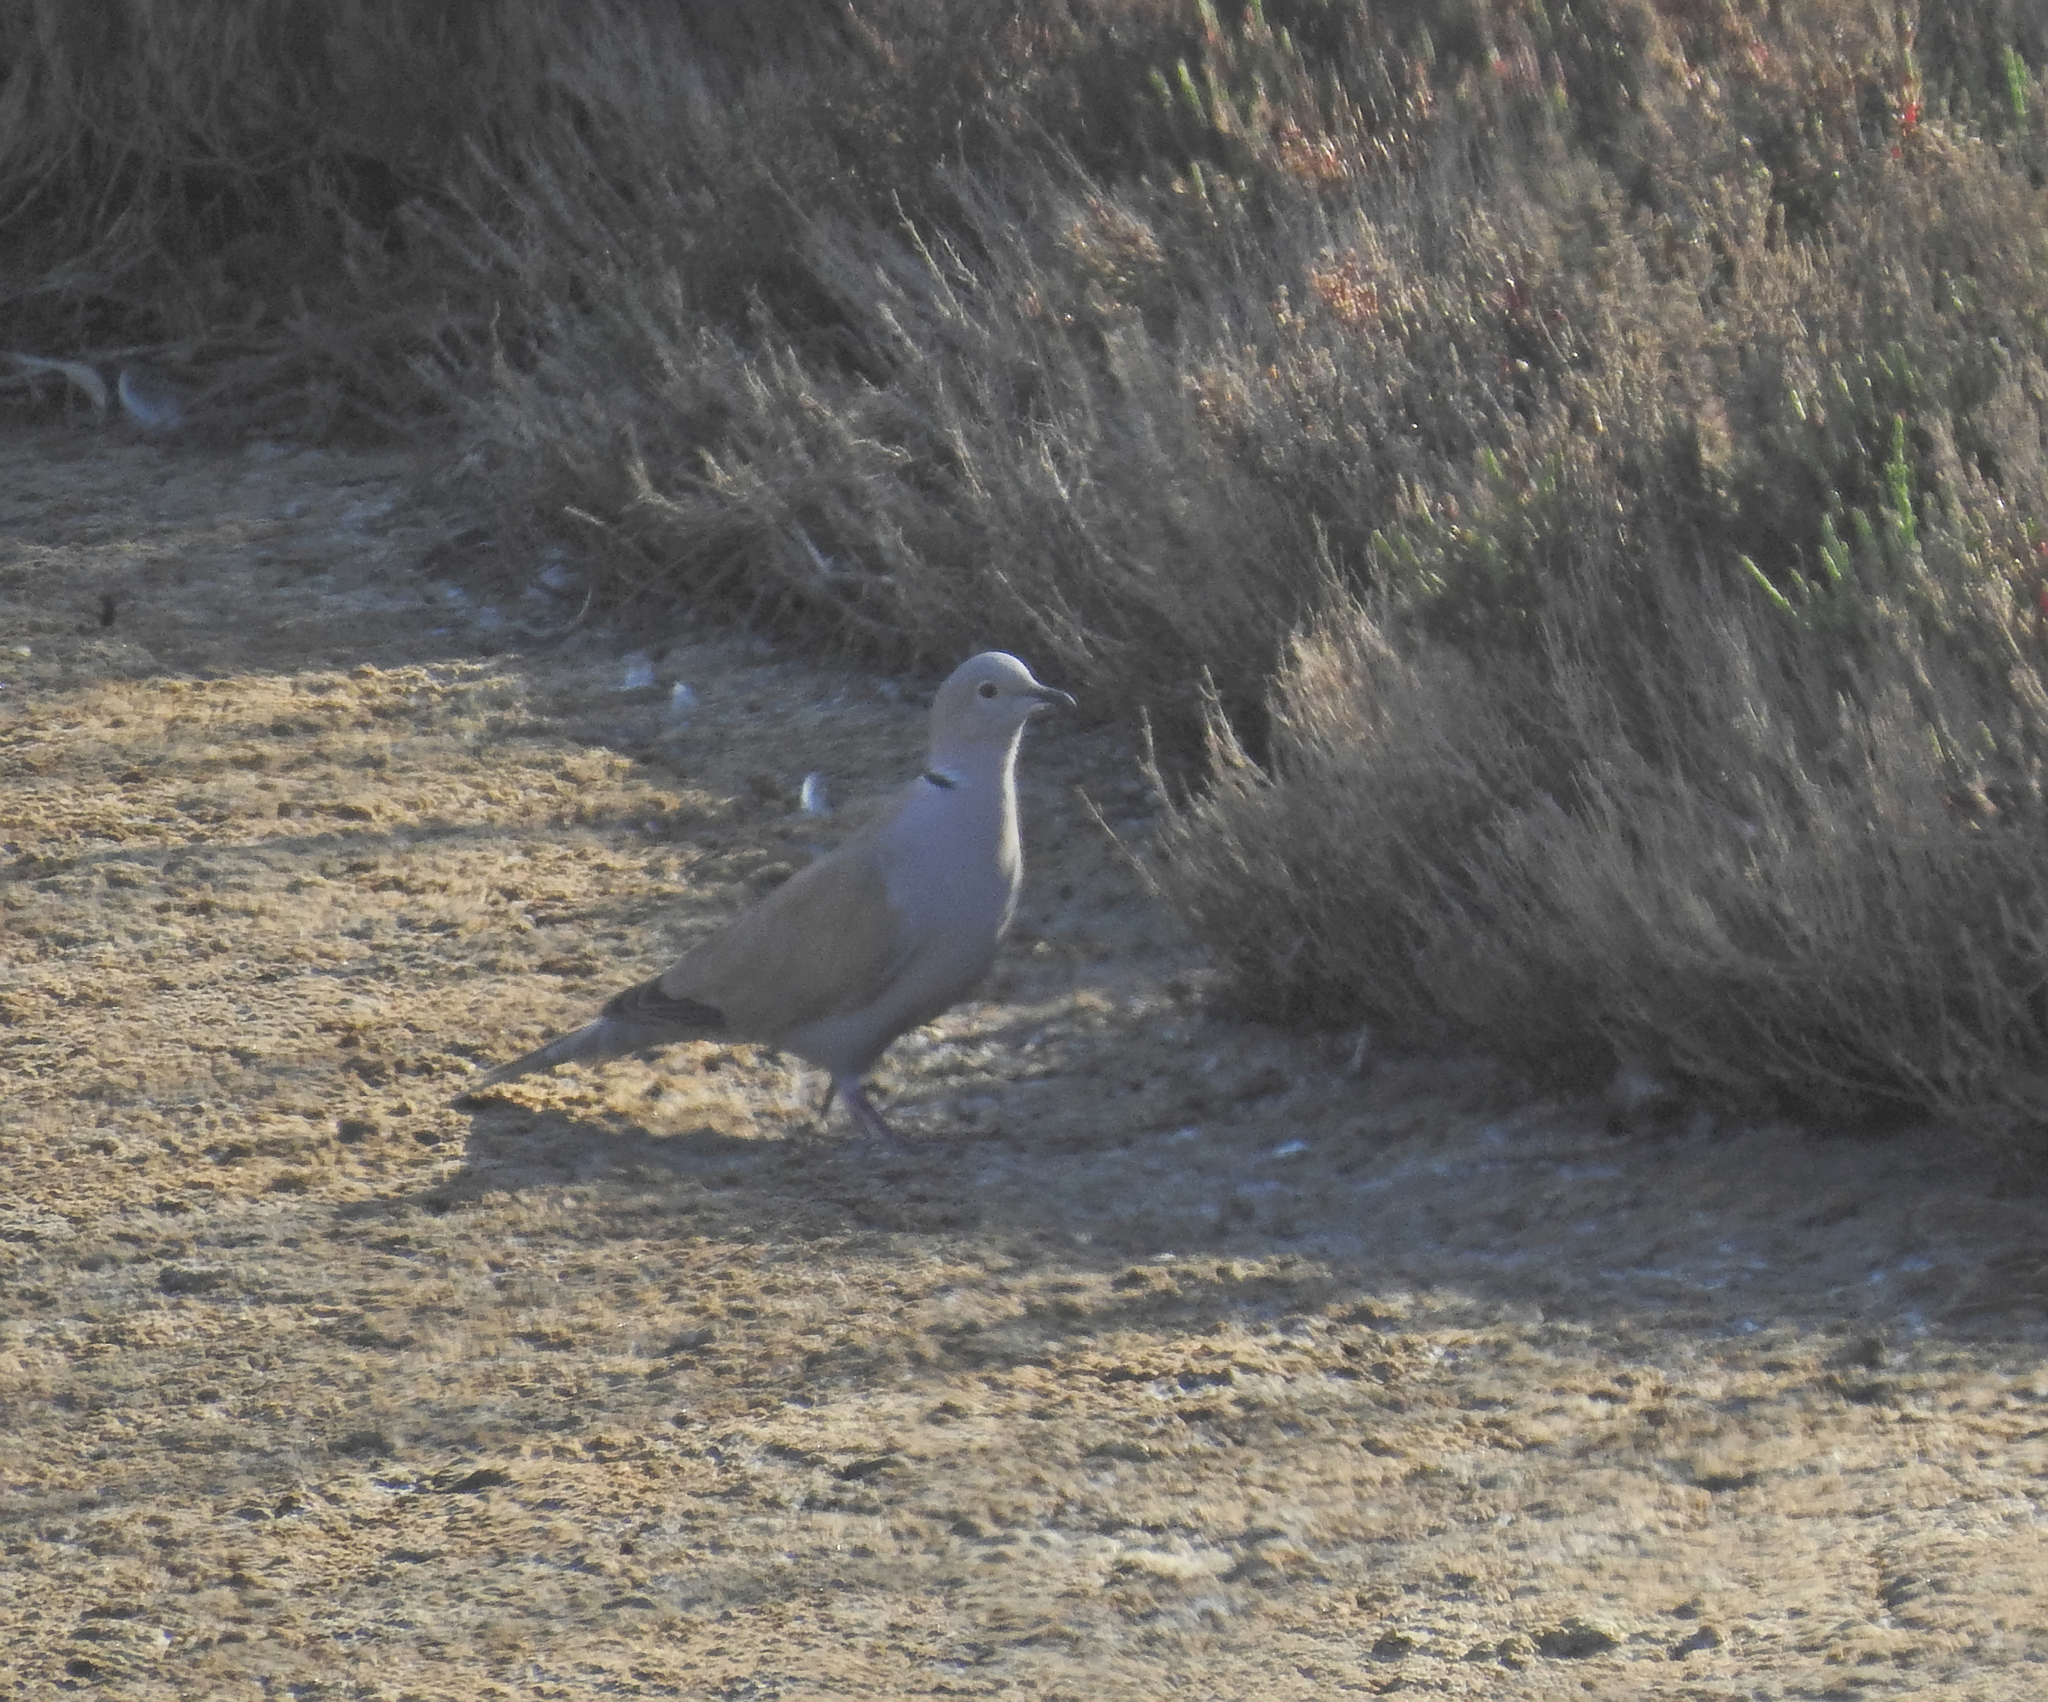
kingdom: Animalia
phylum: Chordata
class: Aves
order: Columbiformes
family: Columbidae
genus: Streptopelia
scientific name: Streptopelia decaocto
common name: Eurasian collared dove
